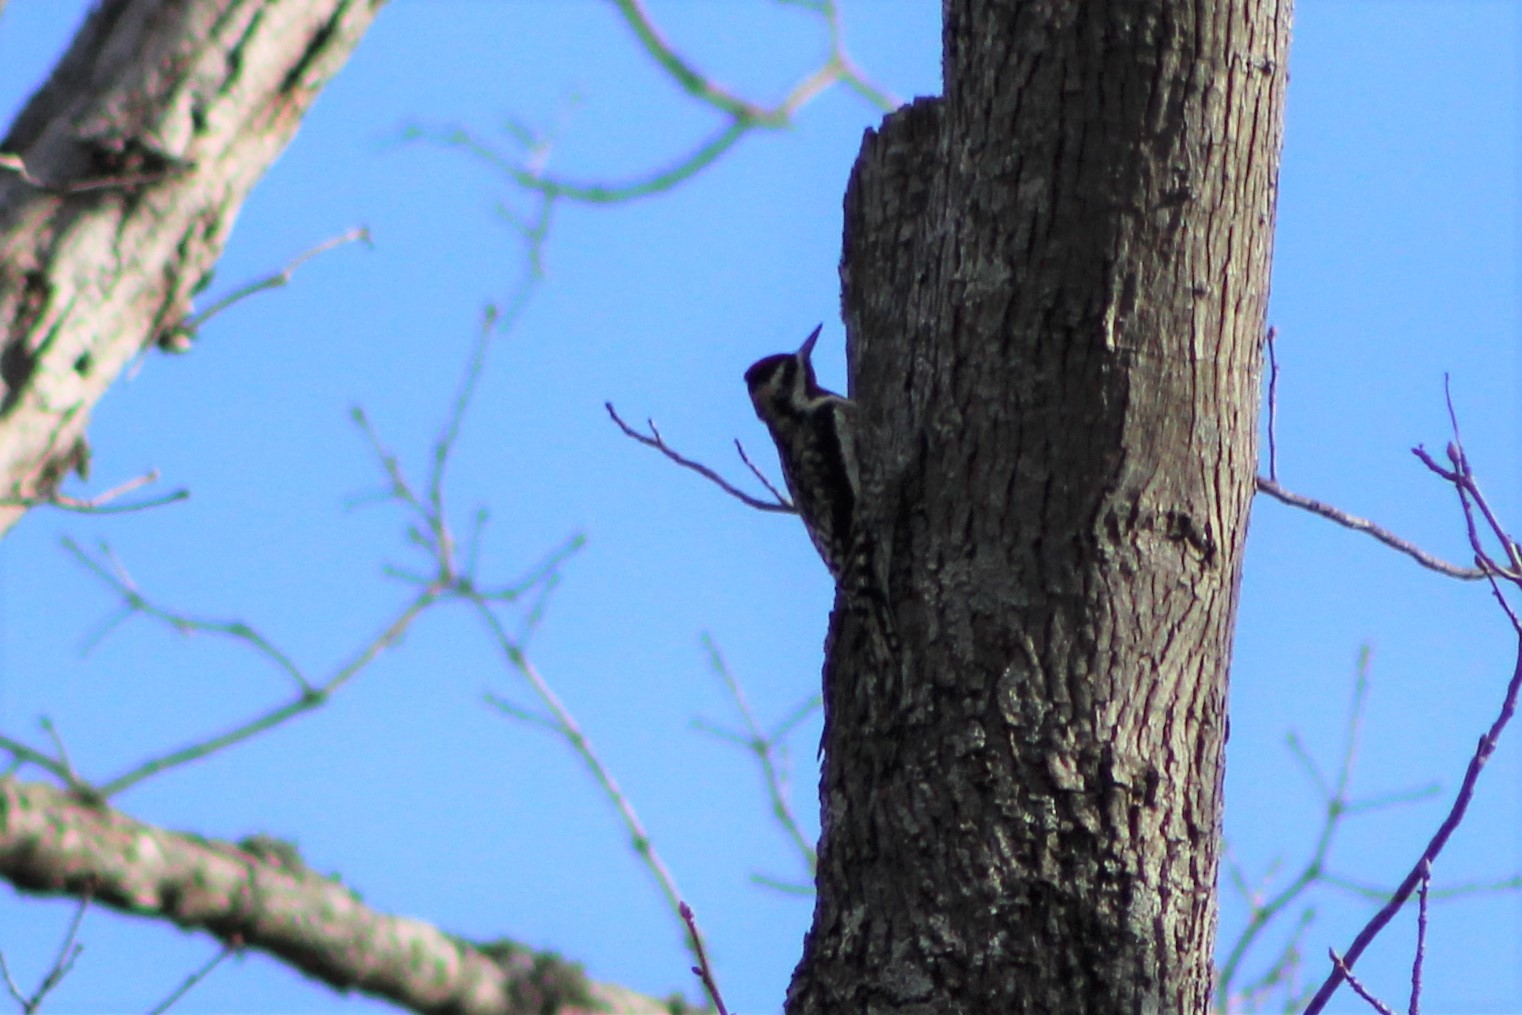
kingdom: Animalia
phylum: Chordata
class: Aves
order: Piciformes
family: Picidae
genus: Sphyrapicus
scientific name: Sphyrapicus varius
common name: Yellow-bellied sapsucker
